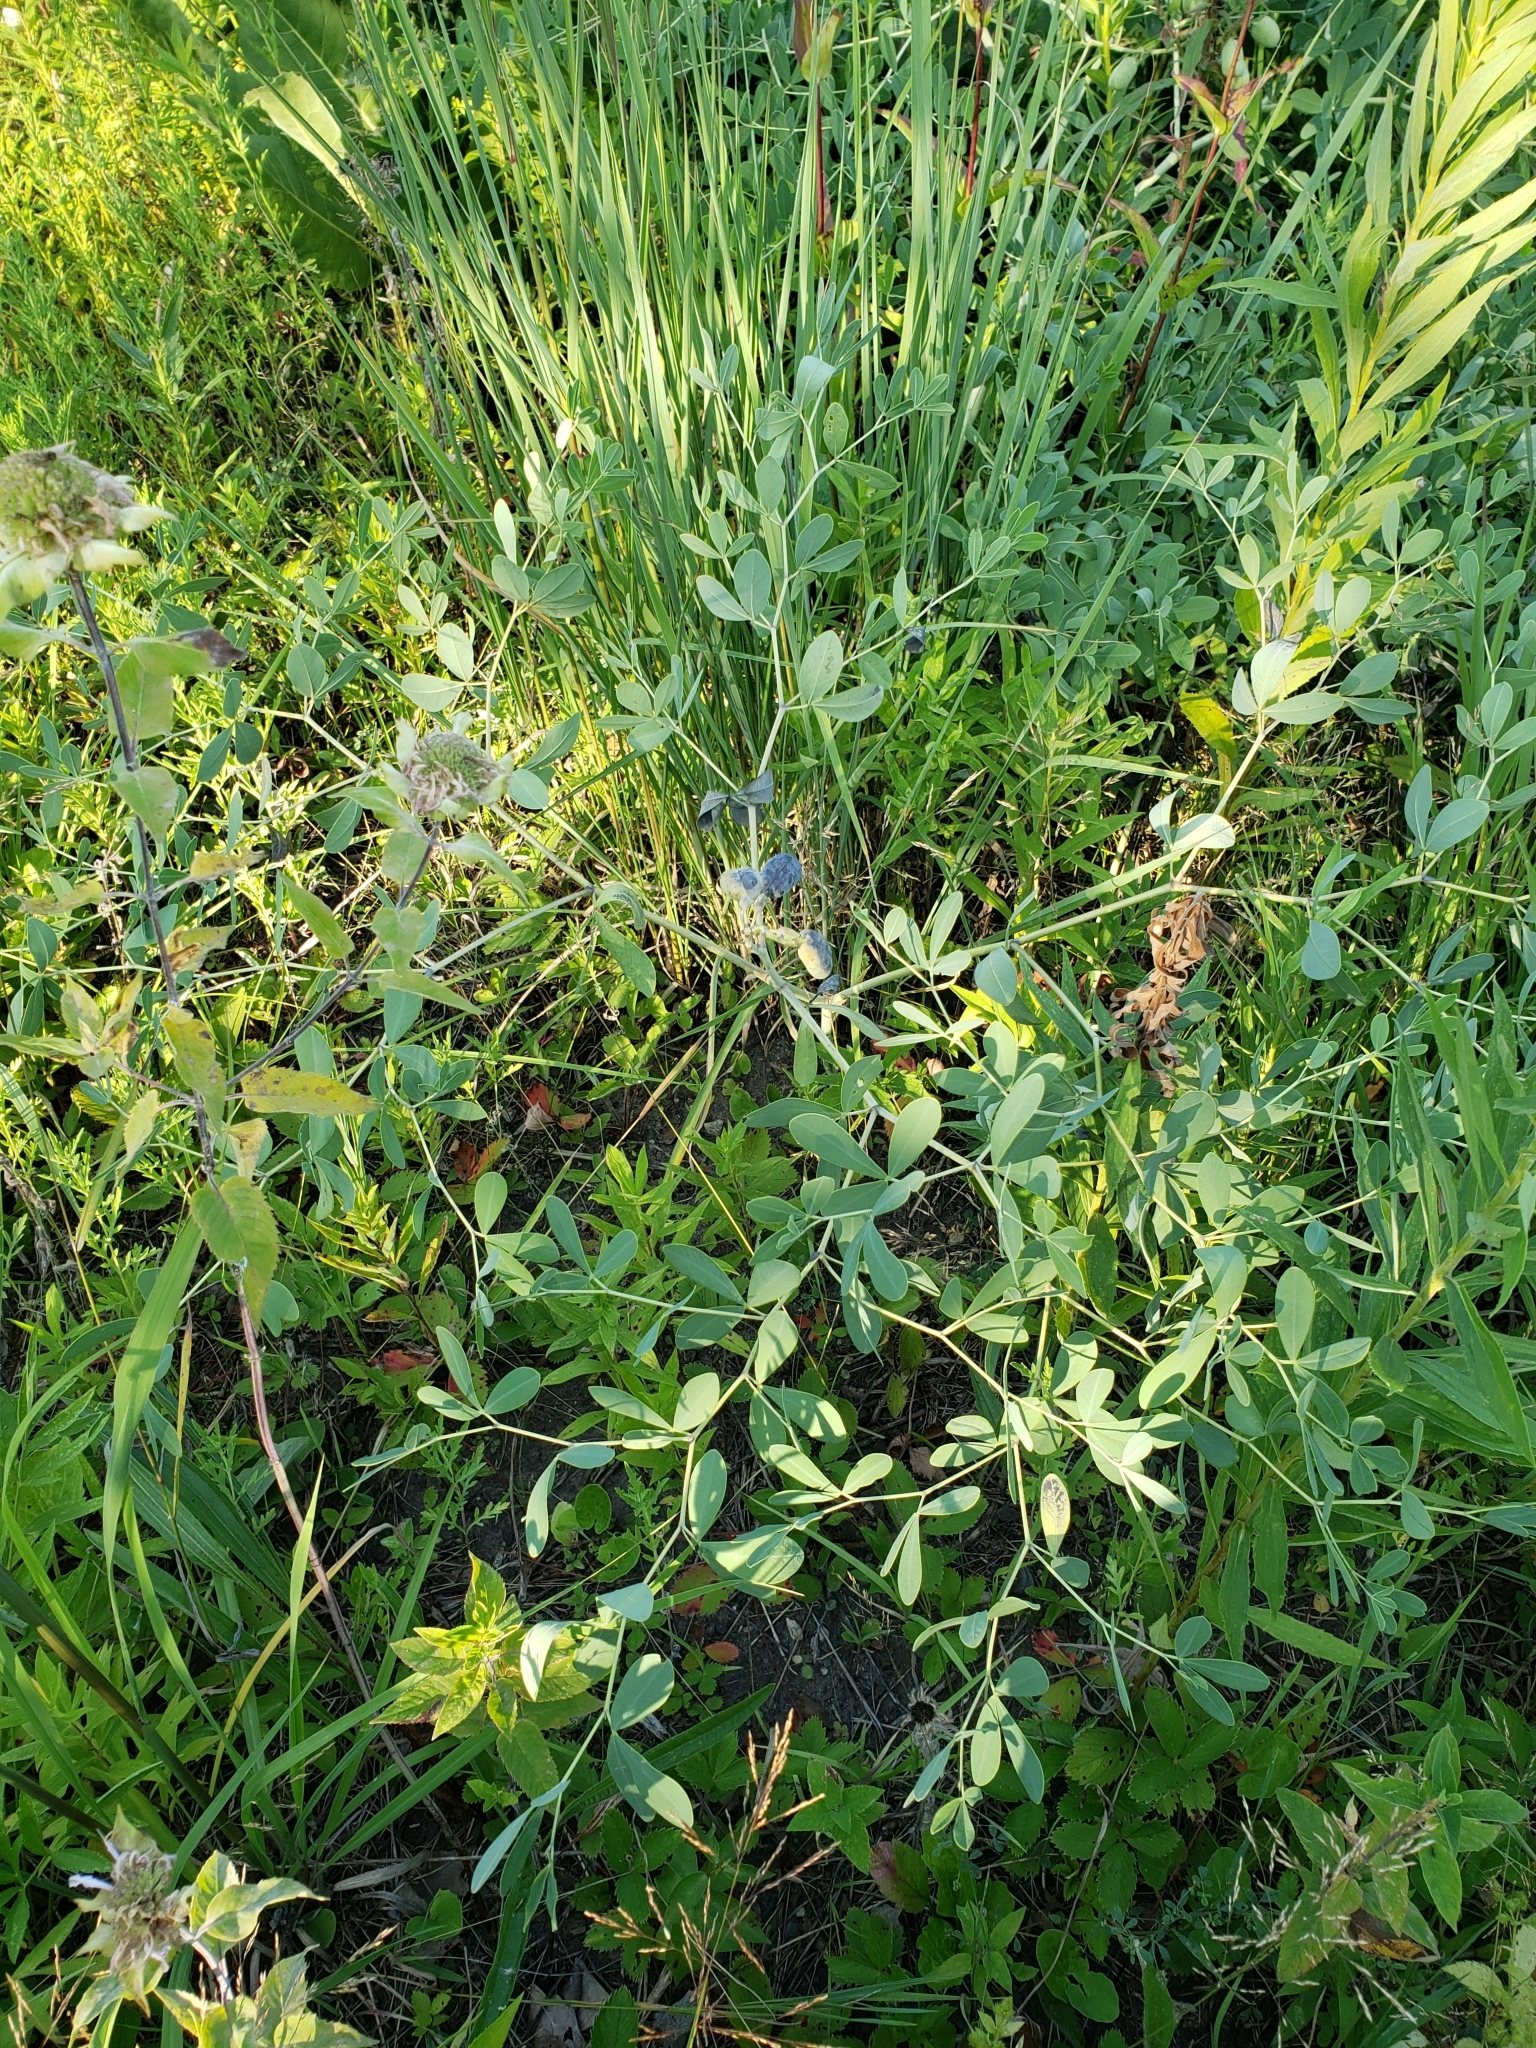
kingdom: Plantae
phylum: Tracheophyta
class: Magnoliopsida
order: Fabales
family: Fabaceae
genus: Baptisia
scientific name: Baptisia alba
